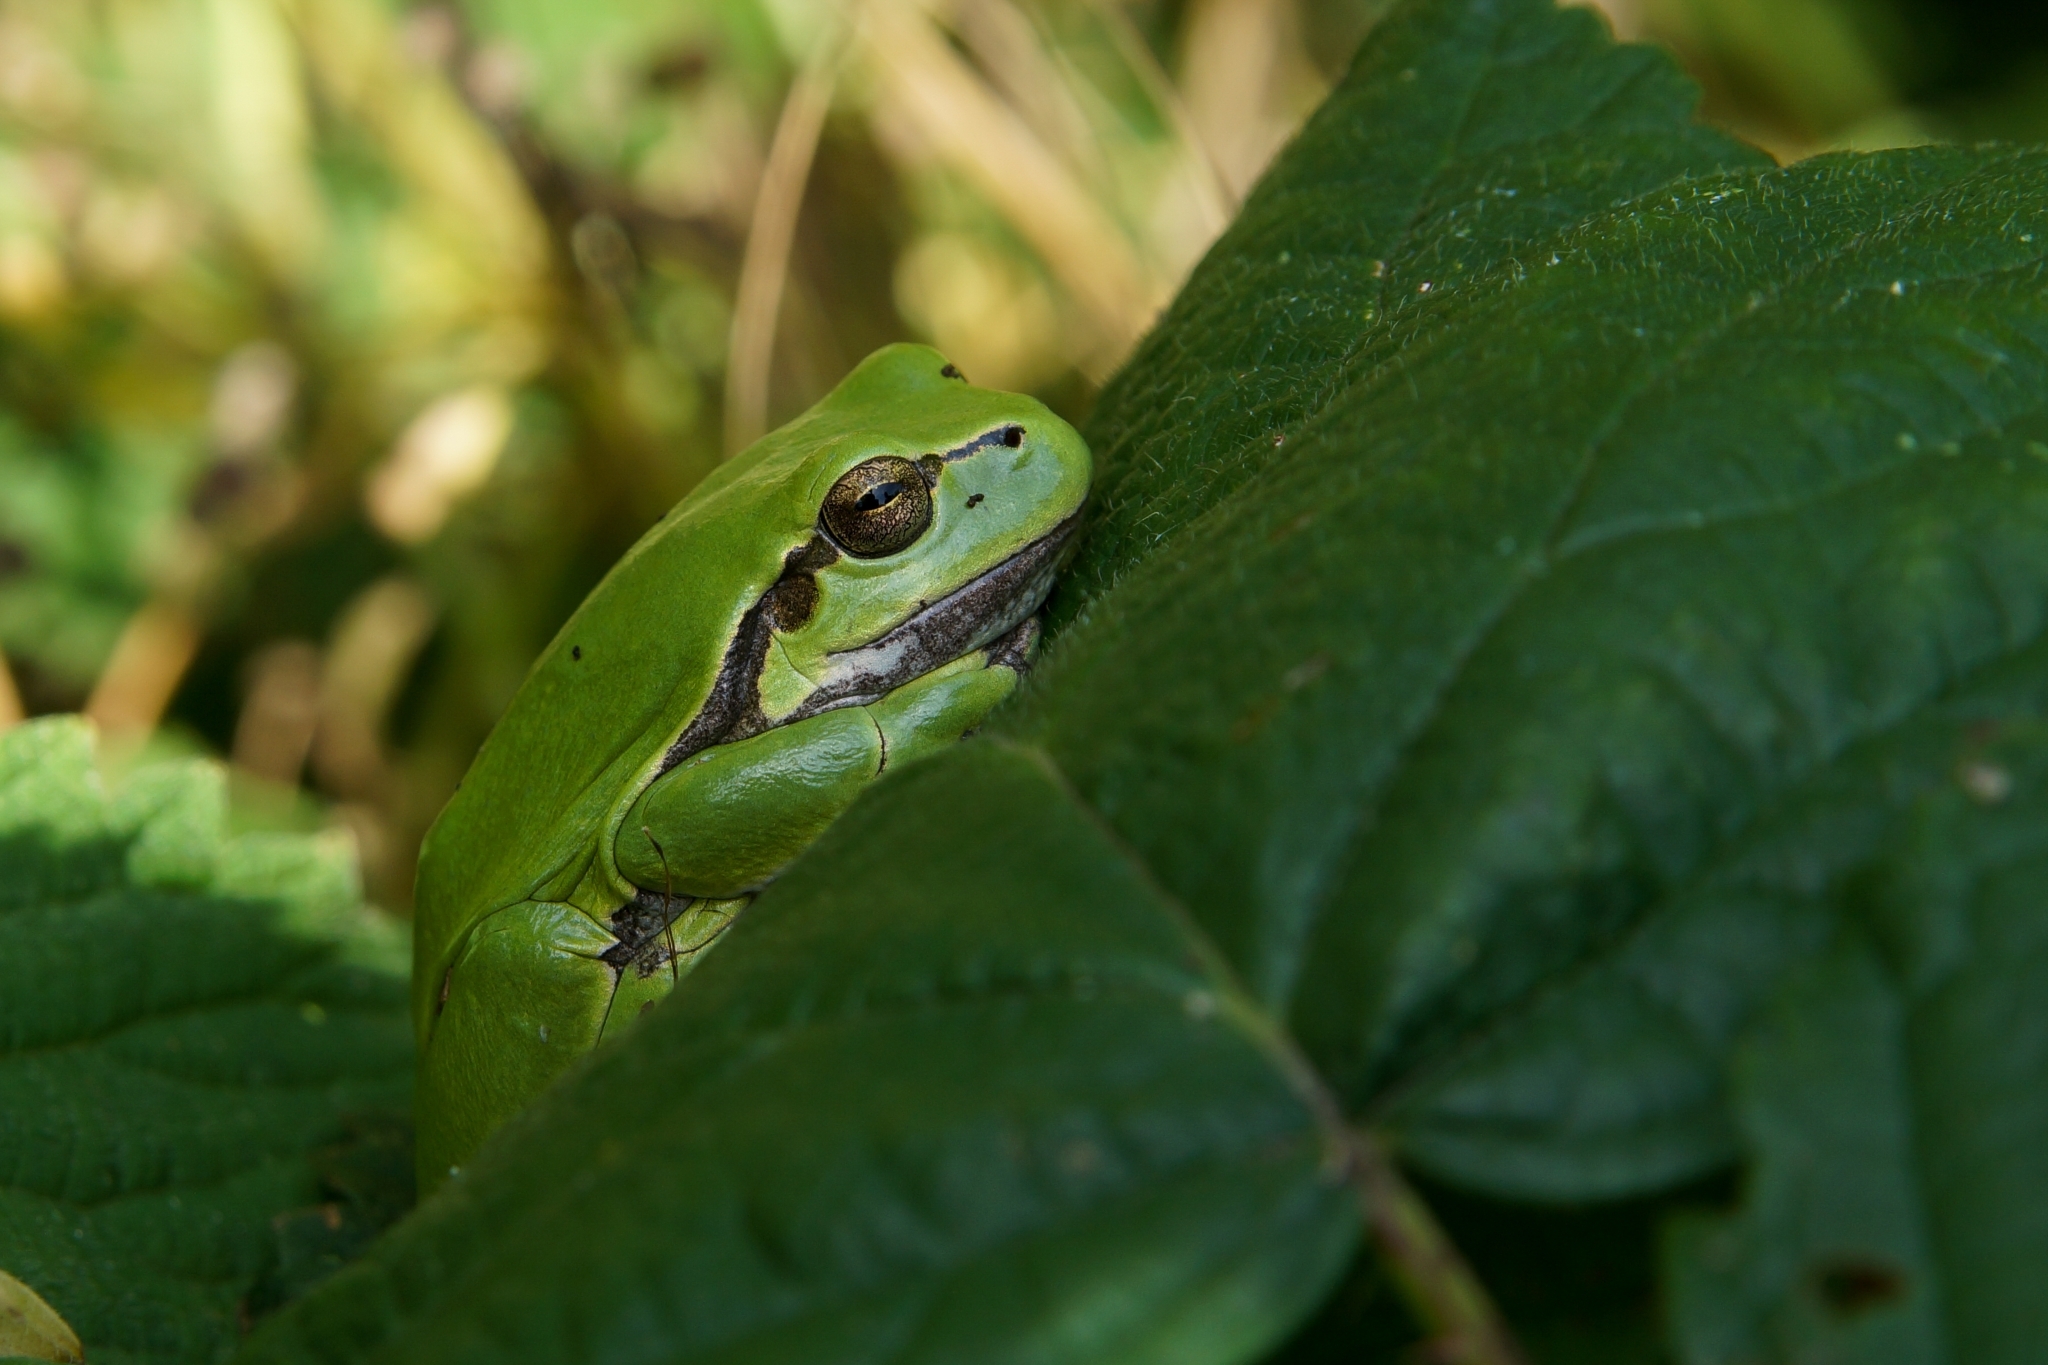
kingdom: Animalia
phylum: Chordata
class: Amphibia
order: Anura
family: Hylidae
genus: Hyla
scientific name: Hyla arborea
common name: Common tree frog
